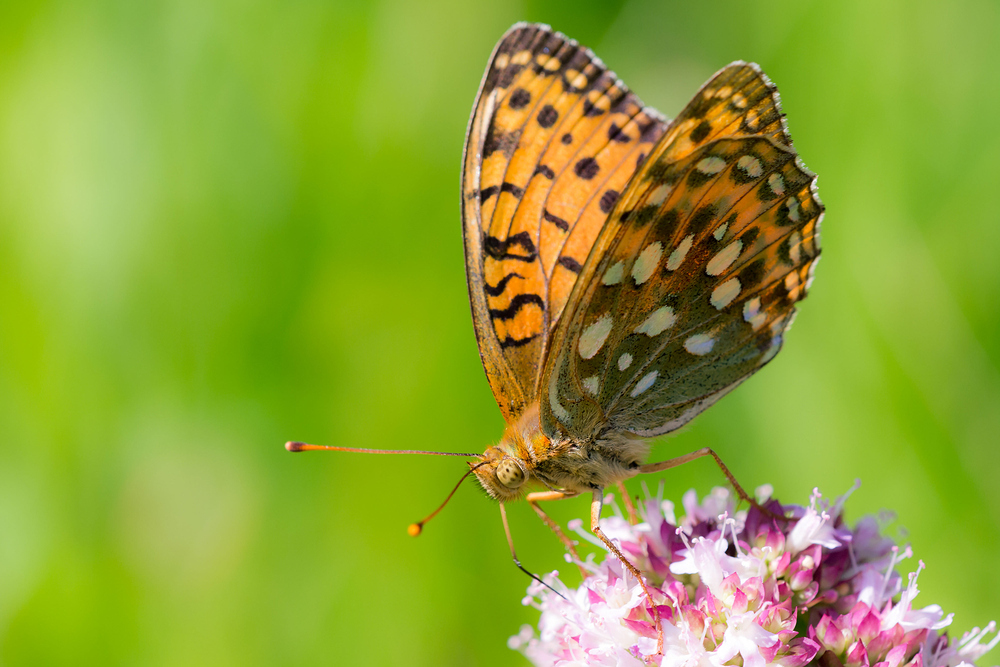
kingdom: Animalia
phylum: Arthropoda
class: Insecta
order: Lepidoptera
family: Nymphalidae
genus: Speyeria
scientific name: Speyeria aglaja
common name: Dark green fritillary
